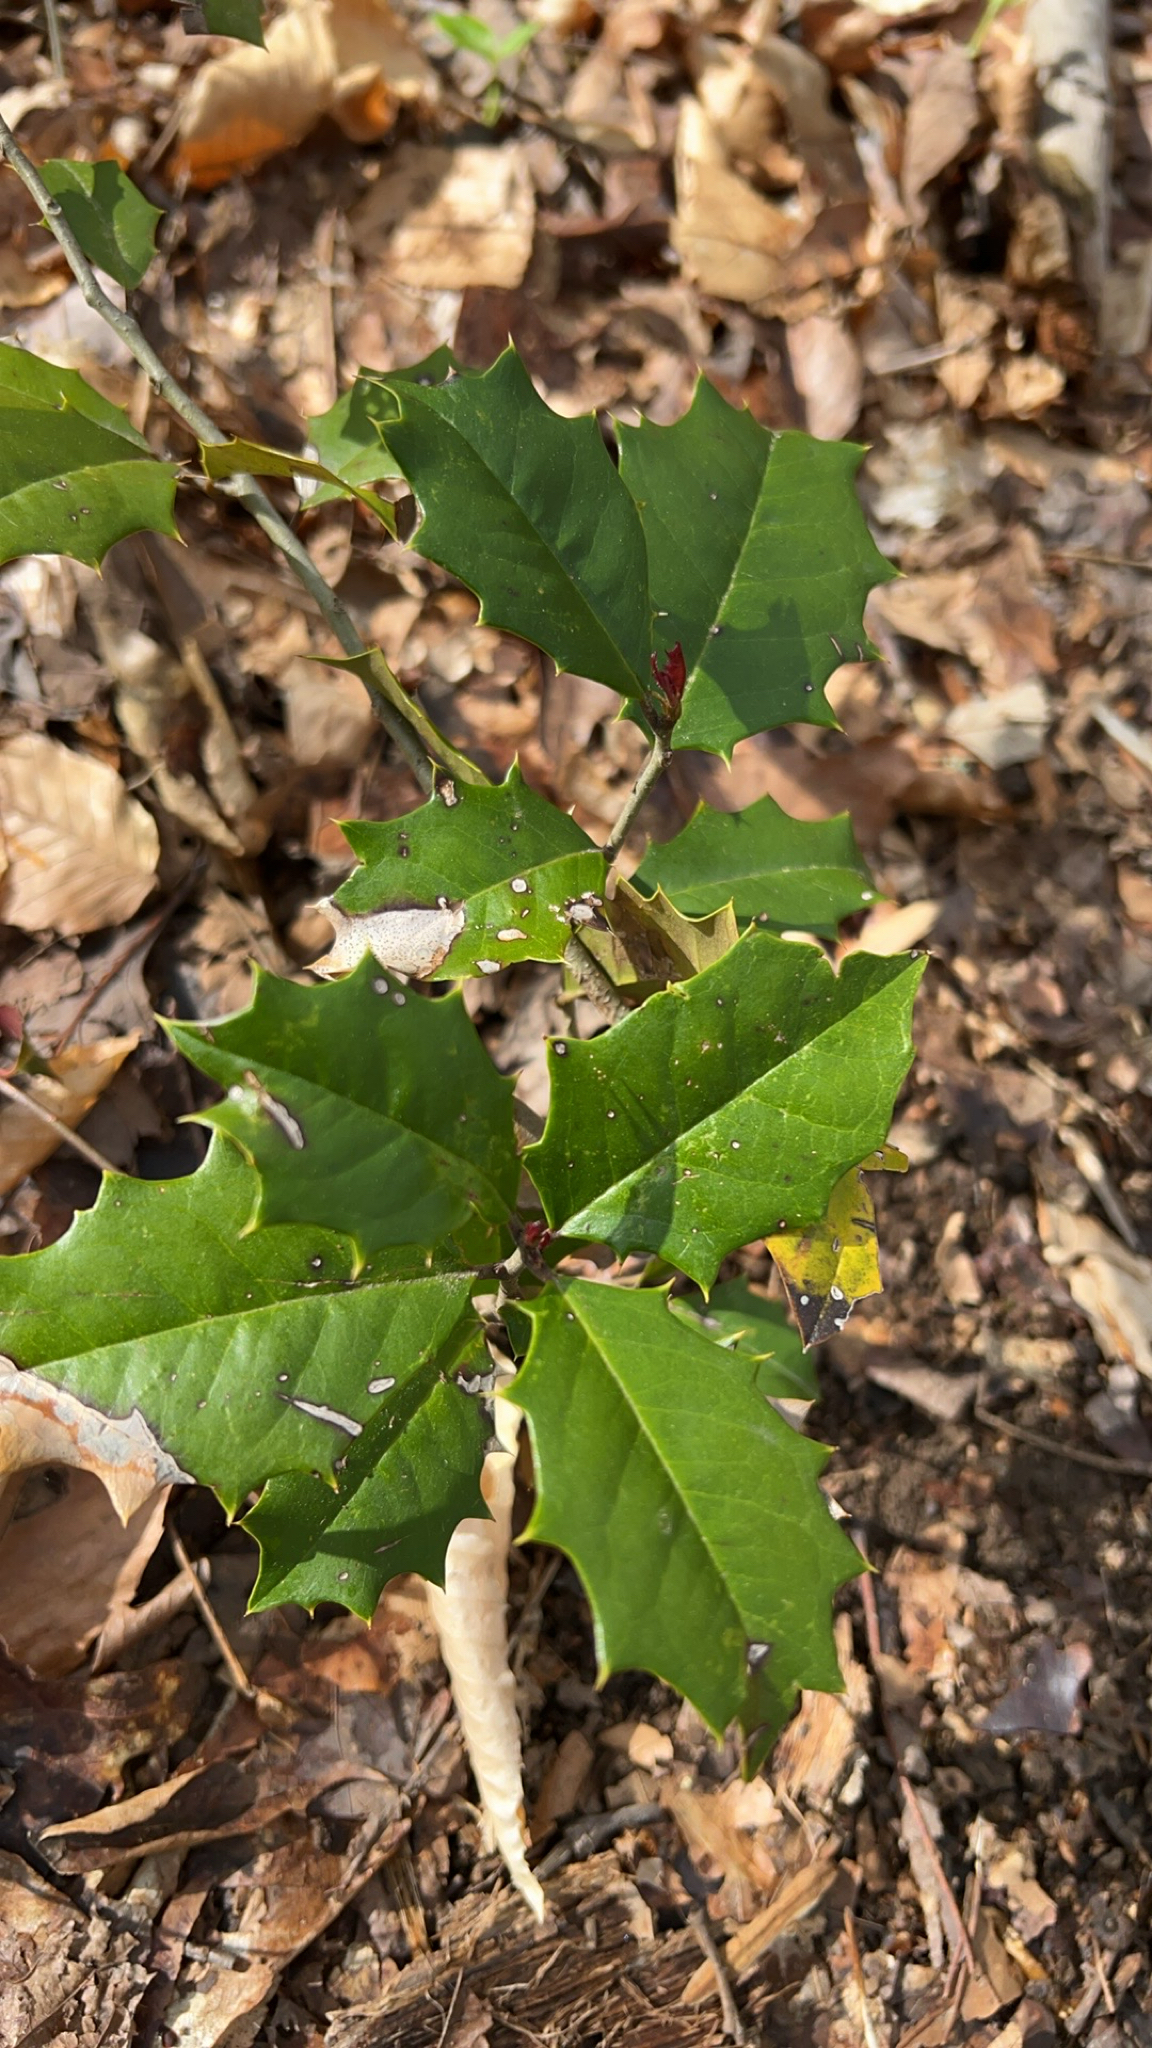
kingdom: Plantae
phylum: Tracheophyta
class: Magnoliopsida
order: Aquifoliales
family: Aquifoliaceae
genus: Ilex
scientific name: Ilex opaca
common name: American holly
